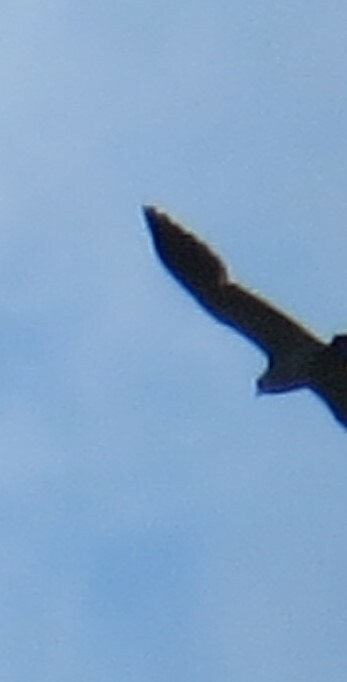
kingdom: Animalia
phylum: Chordata
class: Aves
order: Accipitriformes
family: Accipitridae
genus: Ictinia
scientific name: Ictinia mississippiensis
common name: Mississippi kite
